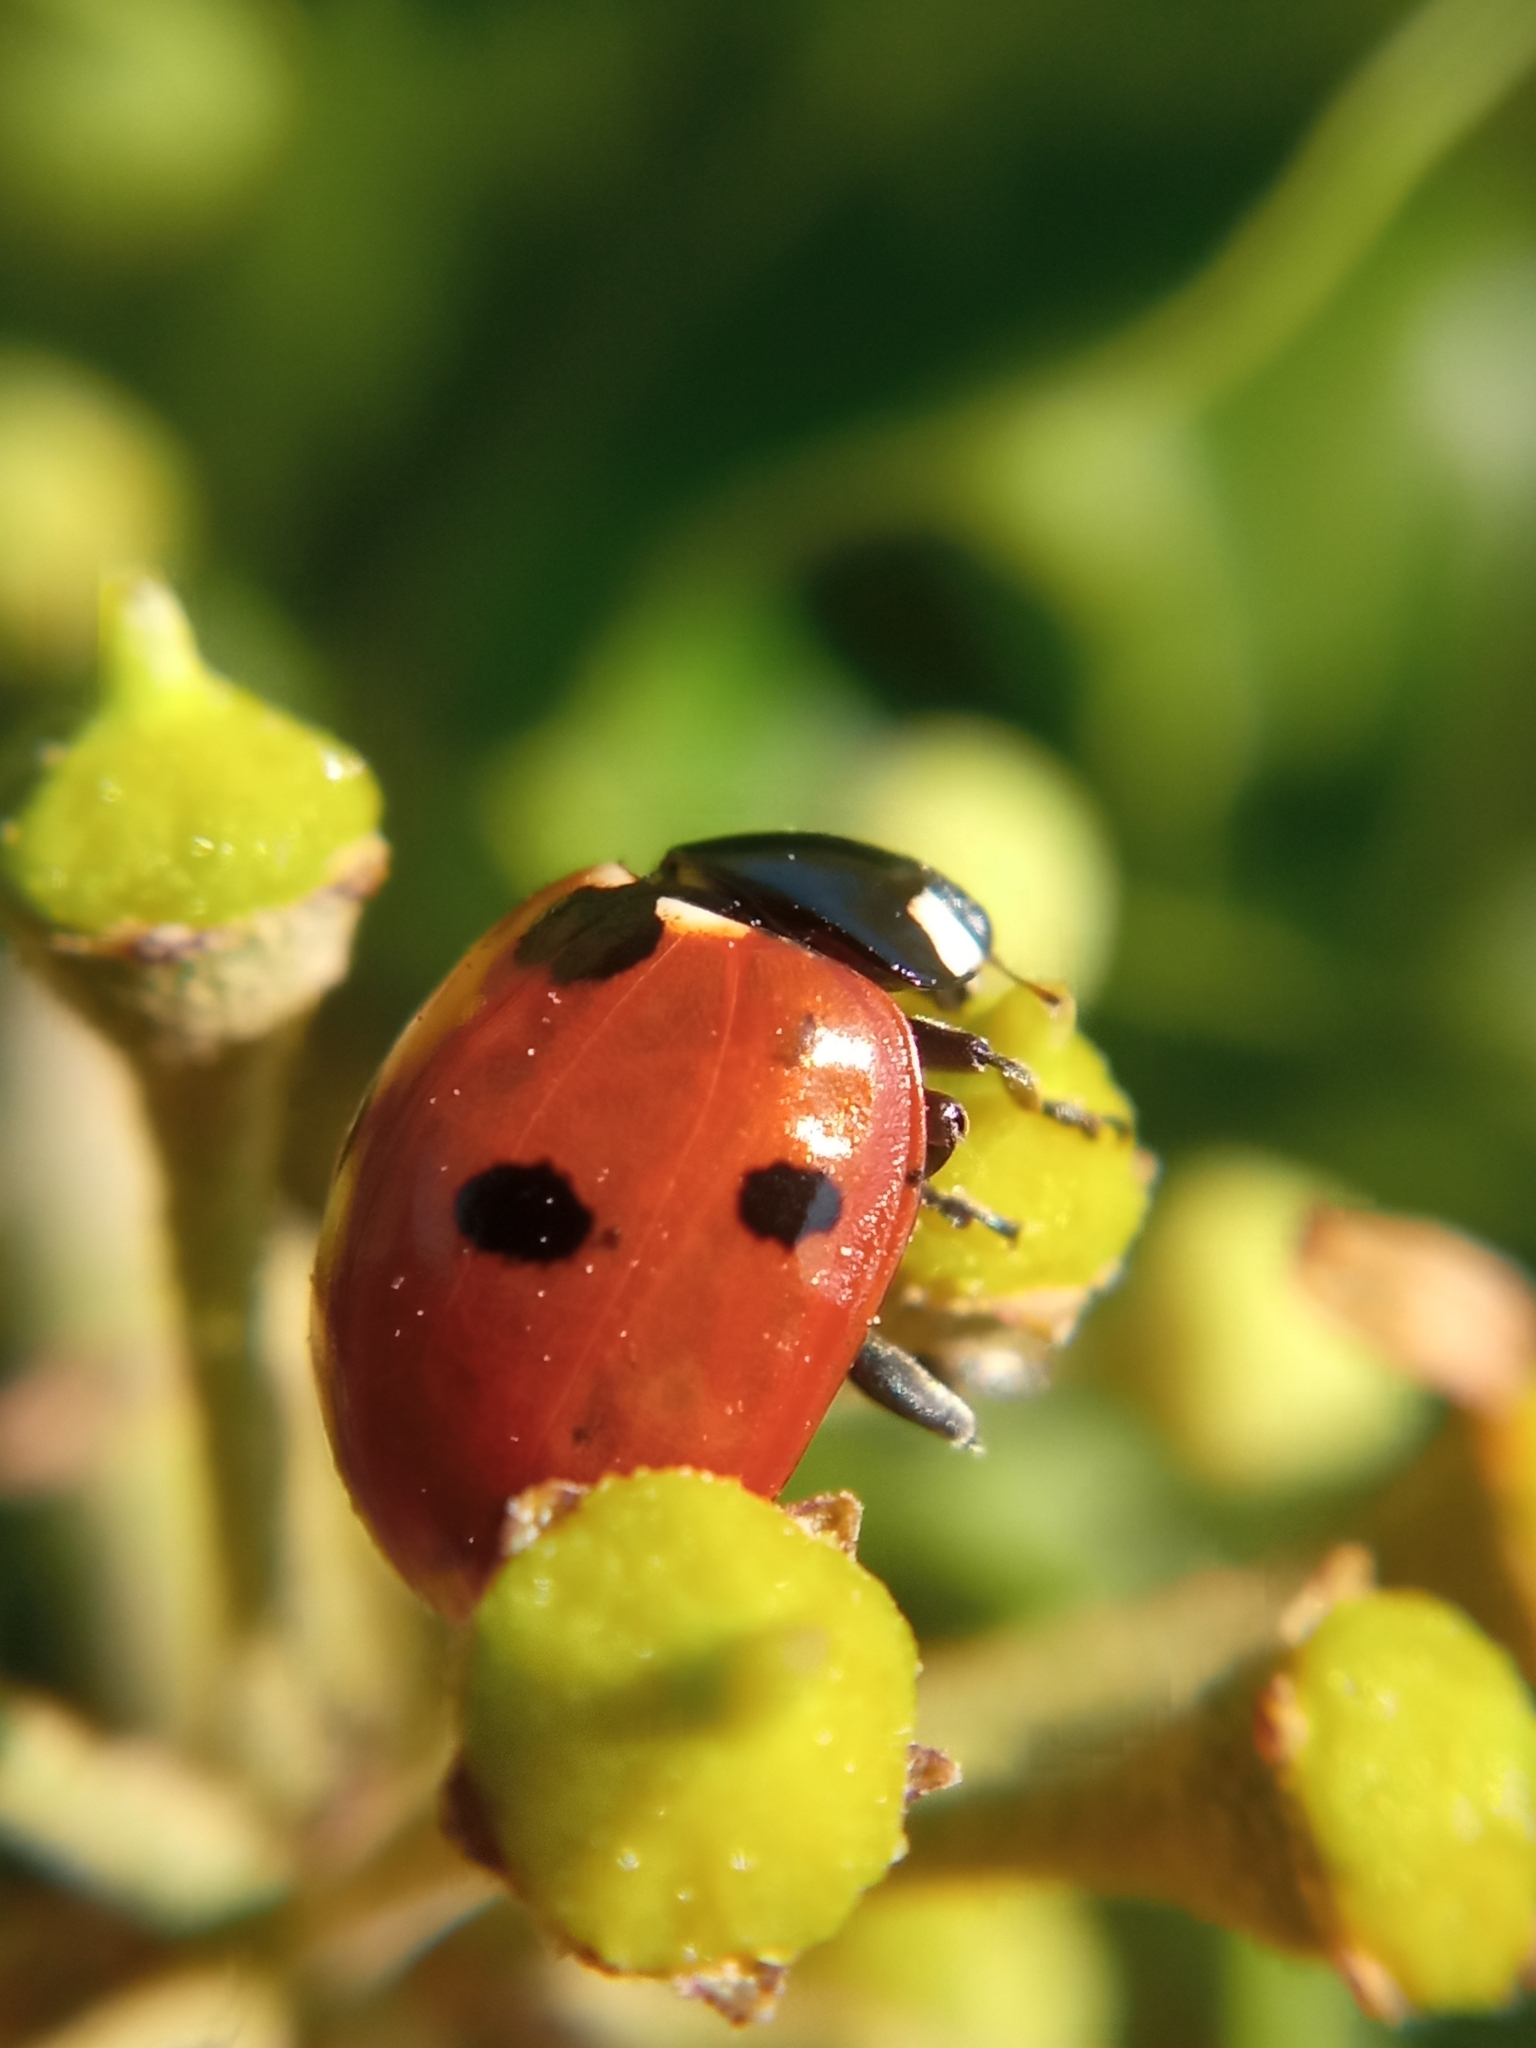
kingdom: Animalia
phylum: Arthropoda
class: Insecta
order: Coleoptera
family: Coccinellidae
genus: Coccinella
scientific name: Coccinella septempunctata
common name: Sevenspotted lady beetle
